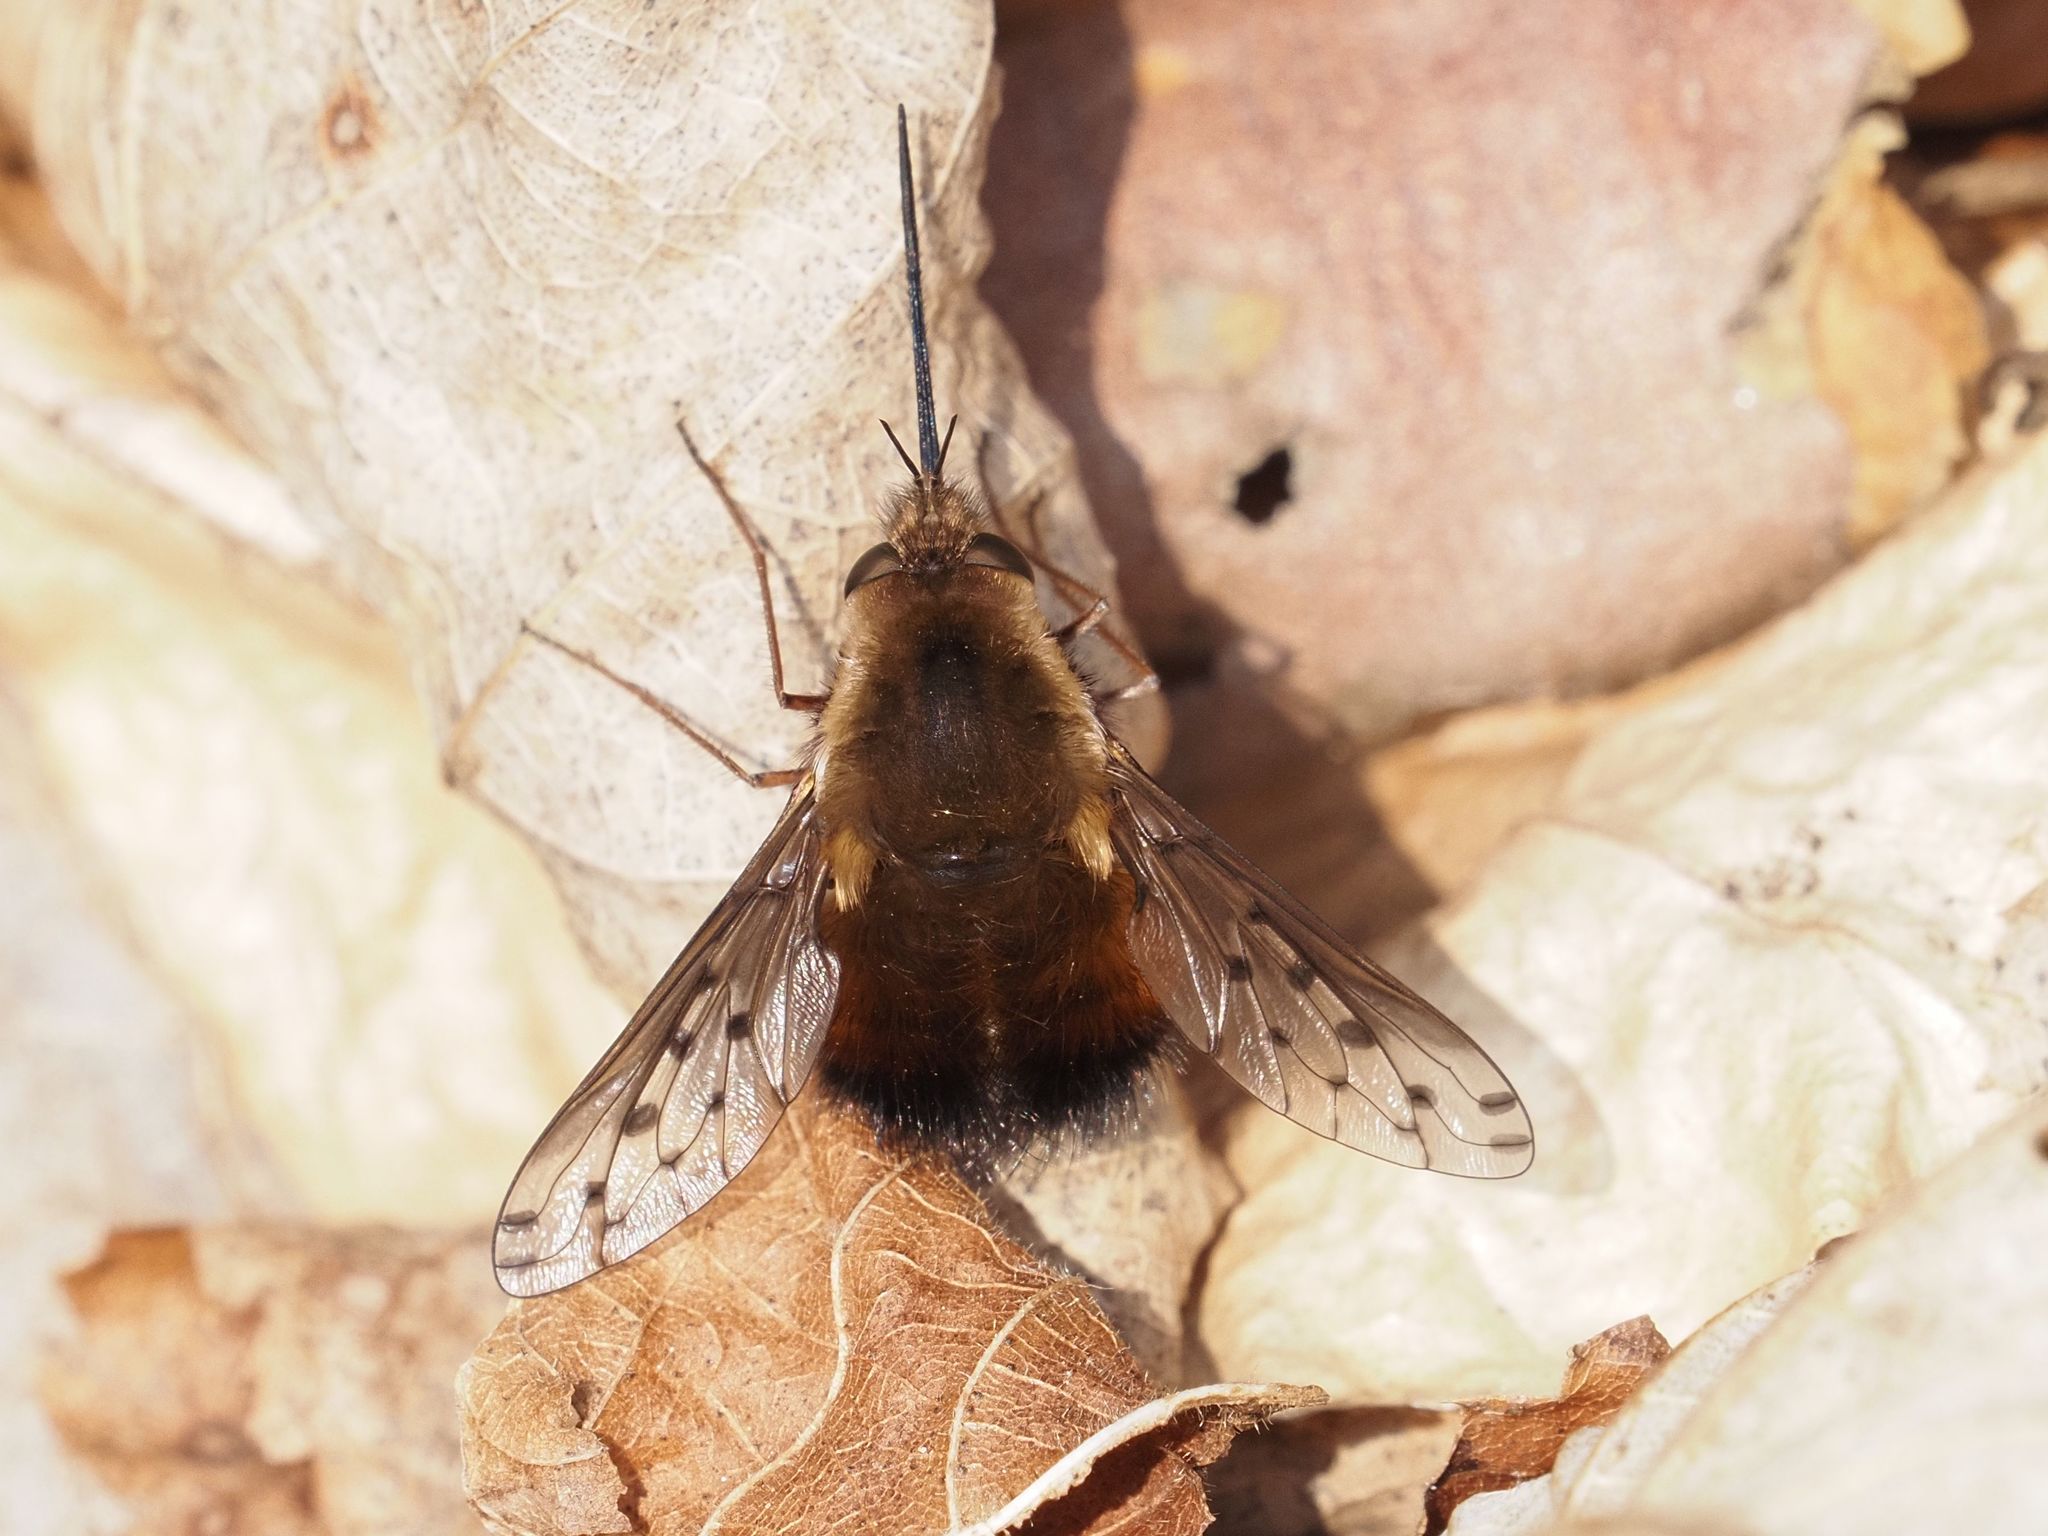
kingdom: Animalia
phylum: Arthropoda
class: Insecta
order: Diptera
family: Bombyliidae
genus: Bombylius
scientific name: Bombylius discolor
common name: Dotted bee-fly
